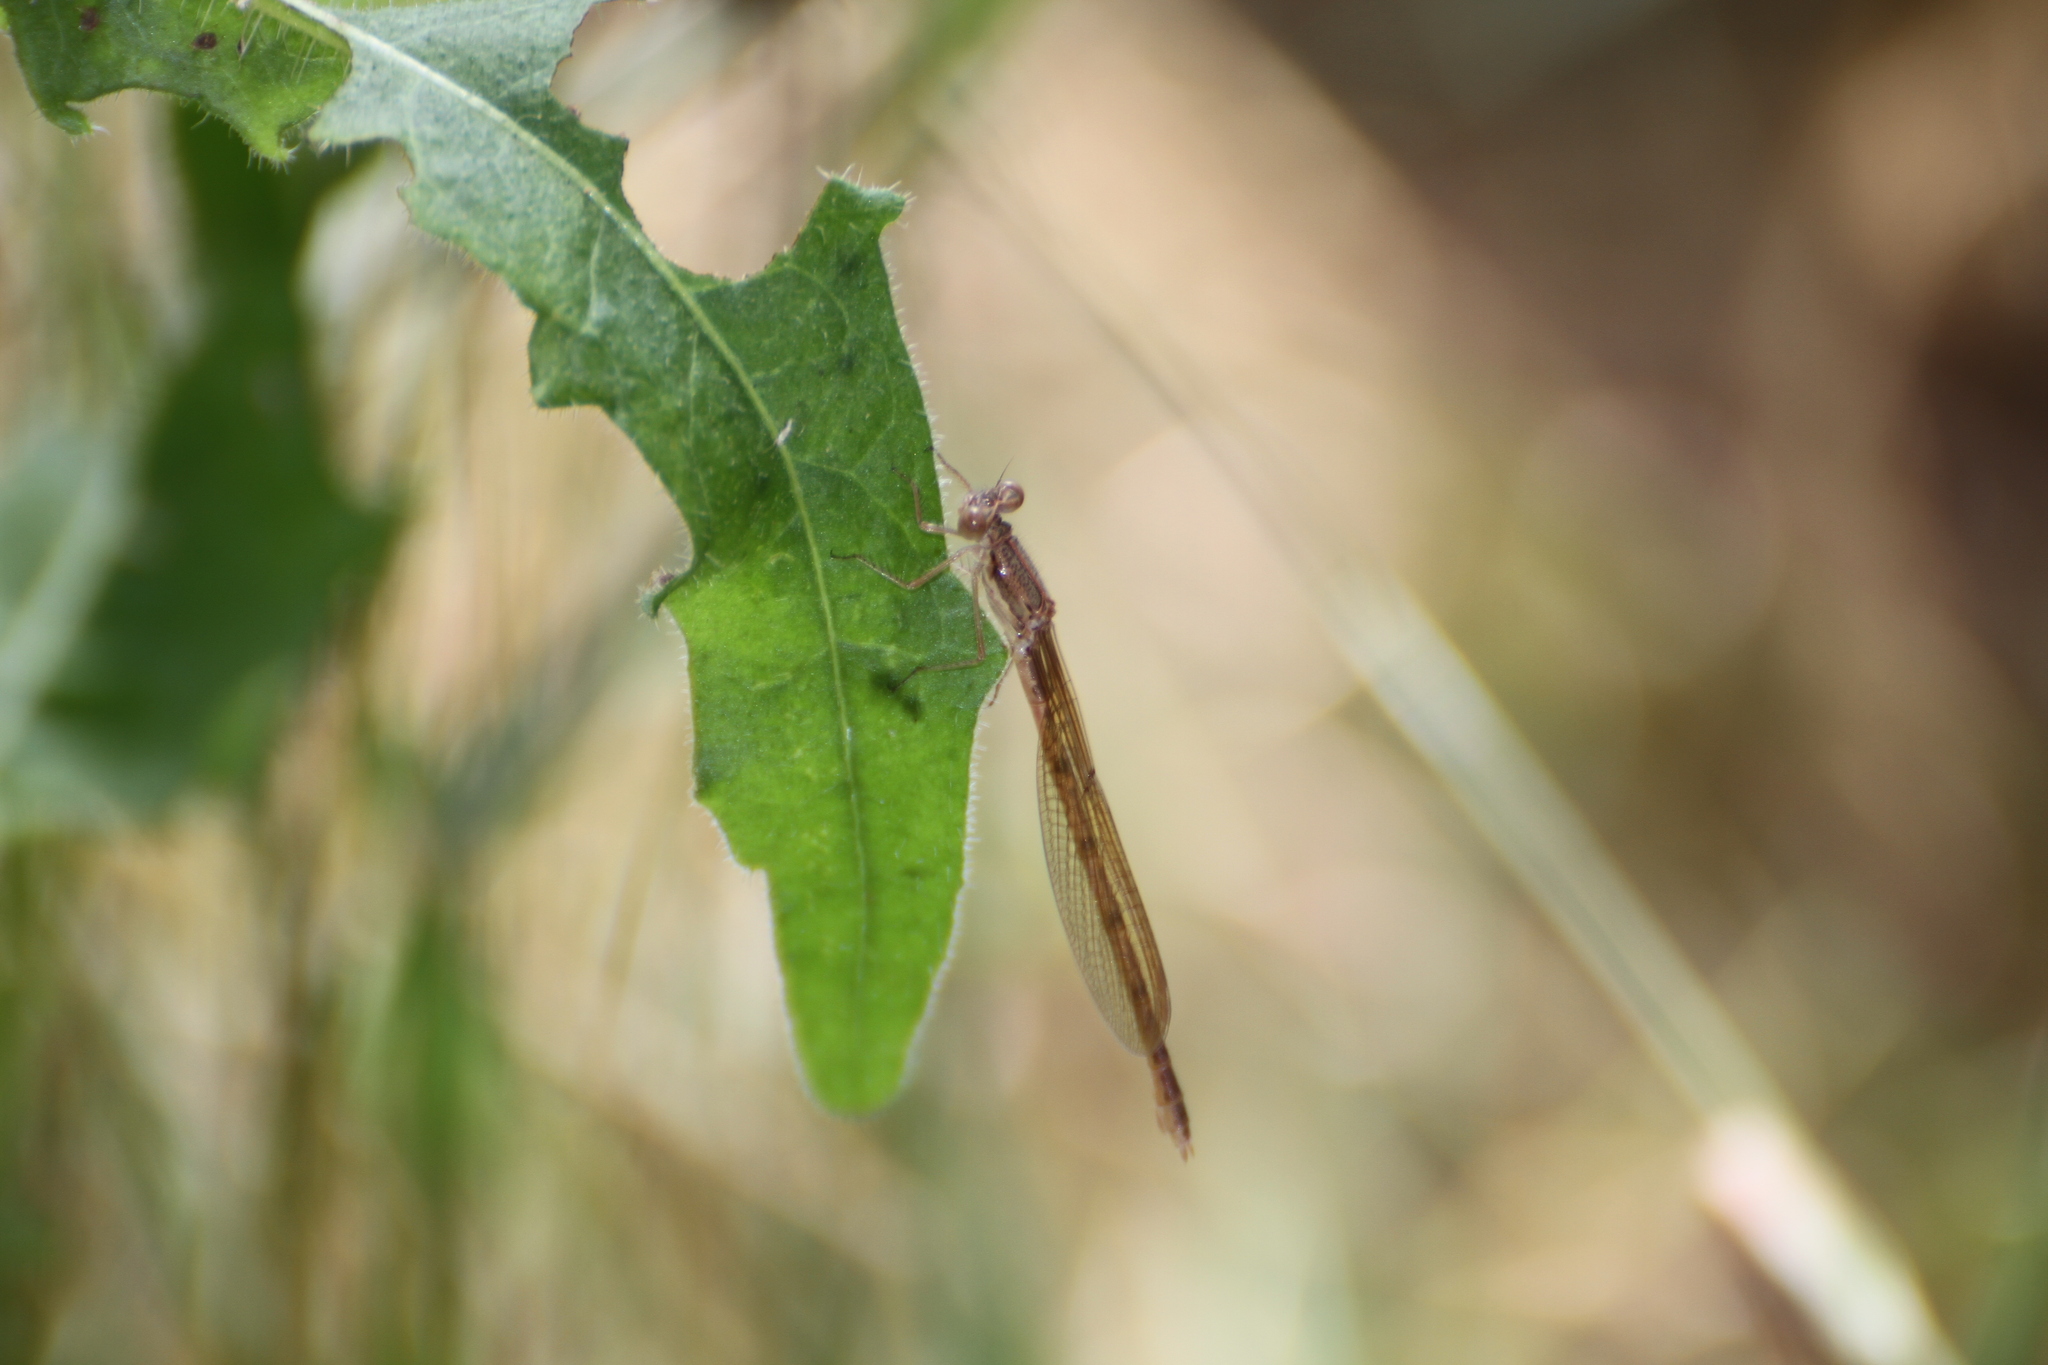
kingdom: Animalia
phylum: Arthropoda
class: Insecta
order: Odonata
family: Lestidae
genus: Sympecma
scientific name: Sympecma fusca
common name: Common winter damsel
